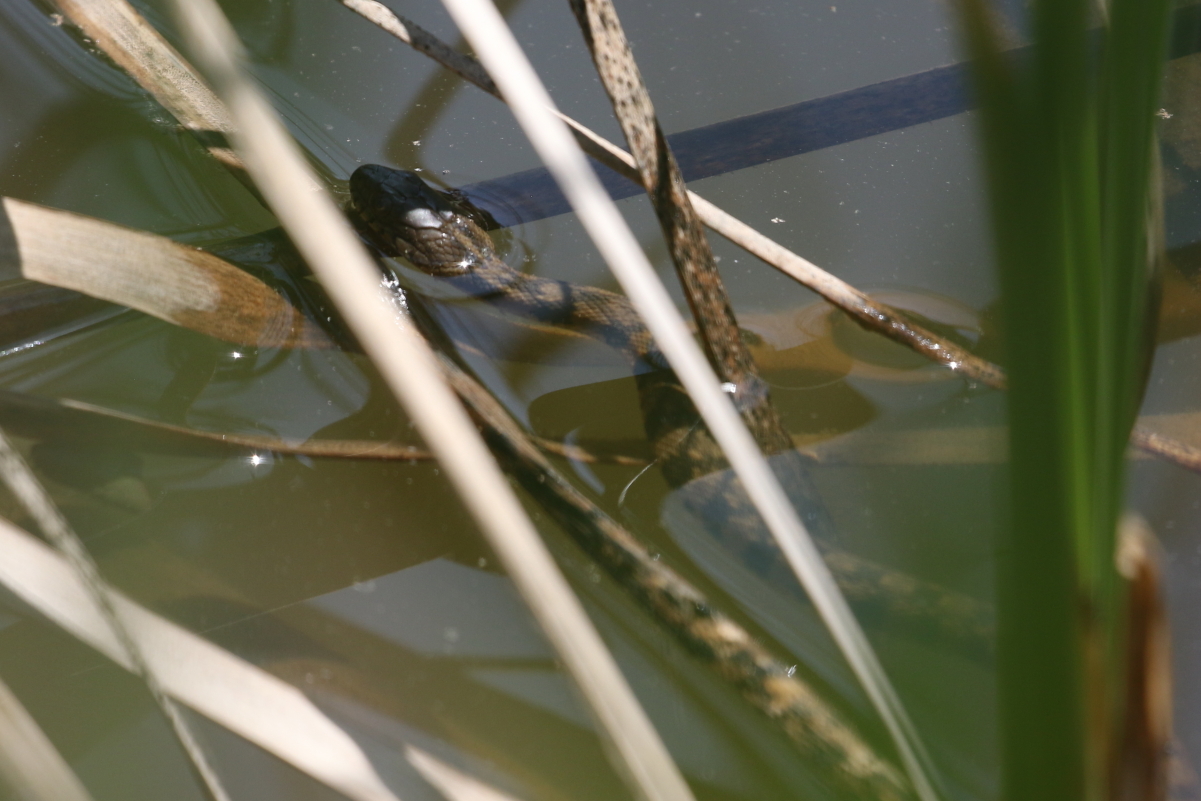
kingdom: Animalia
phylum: Chordata
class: Squamata
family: Colubridae
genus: Nerodia
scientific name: Nerodia rhombifer
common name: Diamondback water snake
